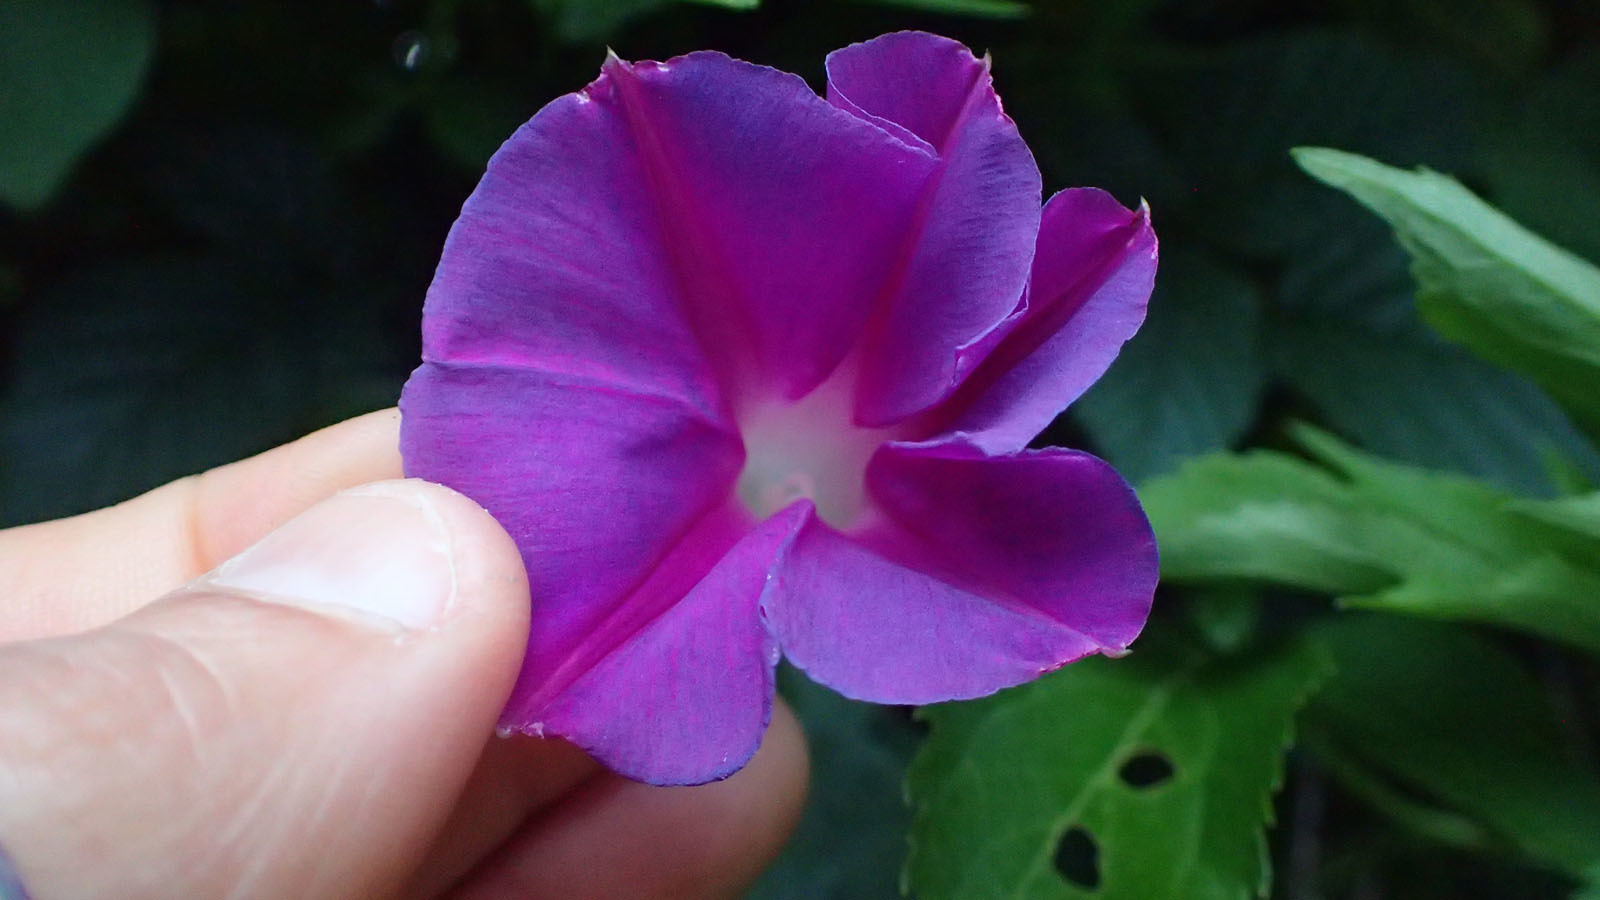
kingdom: Plantae
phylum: Tracheophyta
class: Magnoliopsida
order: Solanales
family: Convolvulaceae
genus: Ipomoea
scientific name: Ipomoea purpurea
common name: Common morning-glory
